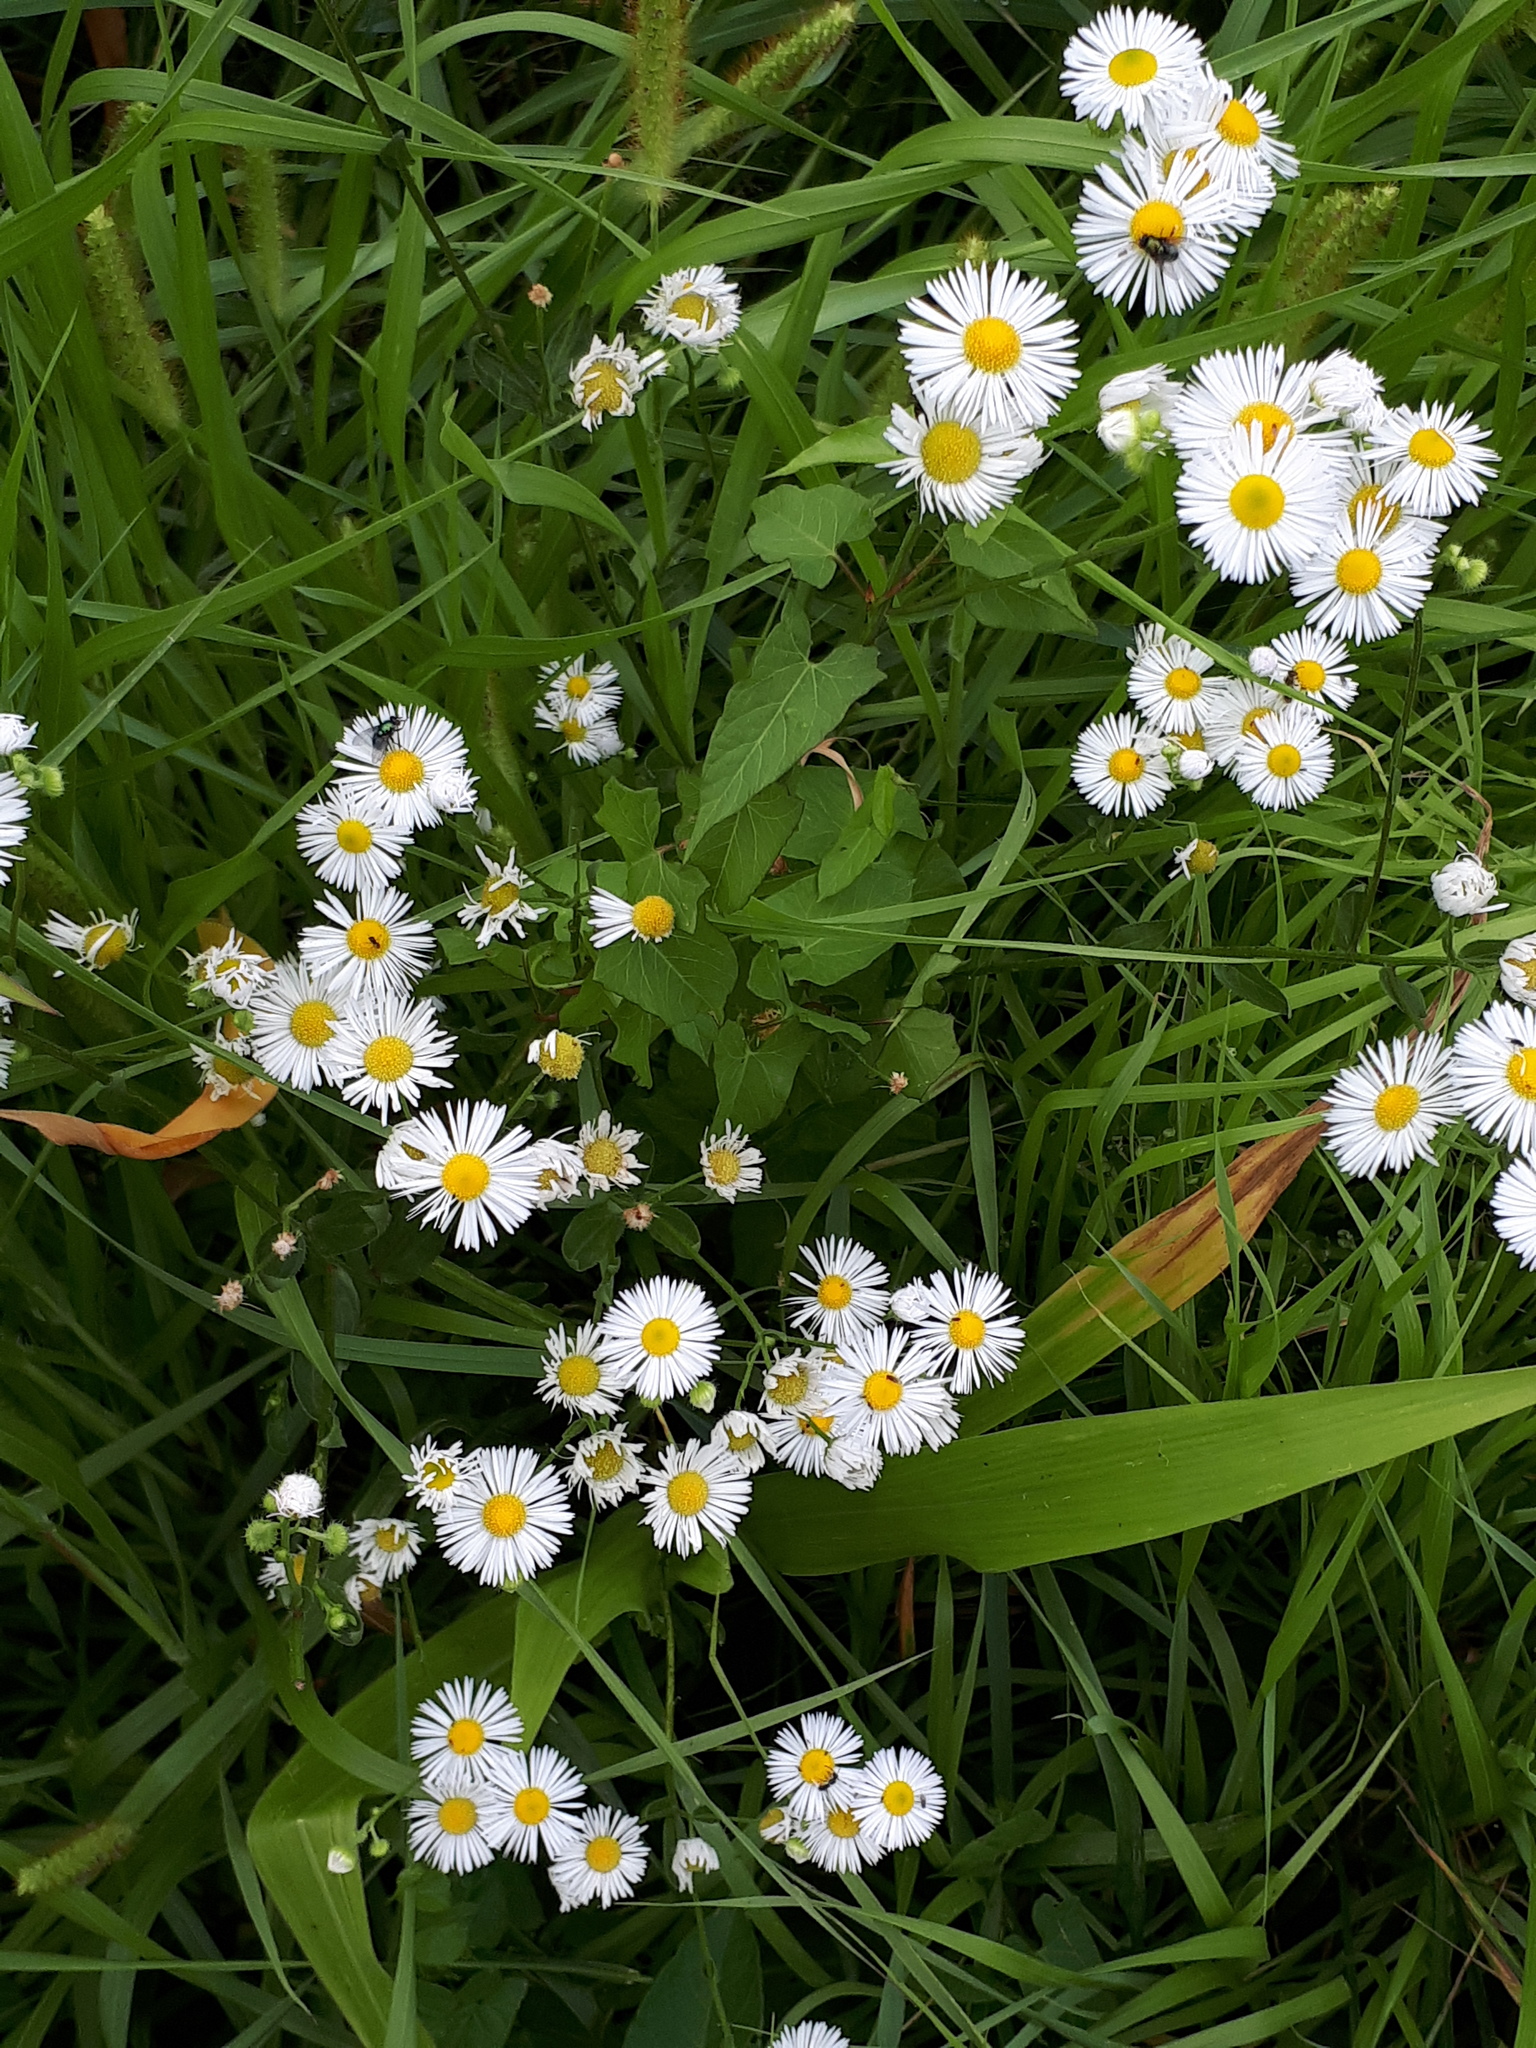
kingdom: Plantae
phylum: Tracheophyta
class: Magnoliopsida
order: Asterales
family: Asteraceae
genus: Erigeron
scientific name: Erigeron annuus
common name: Tall fleabane
